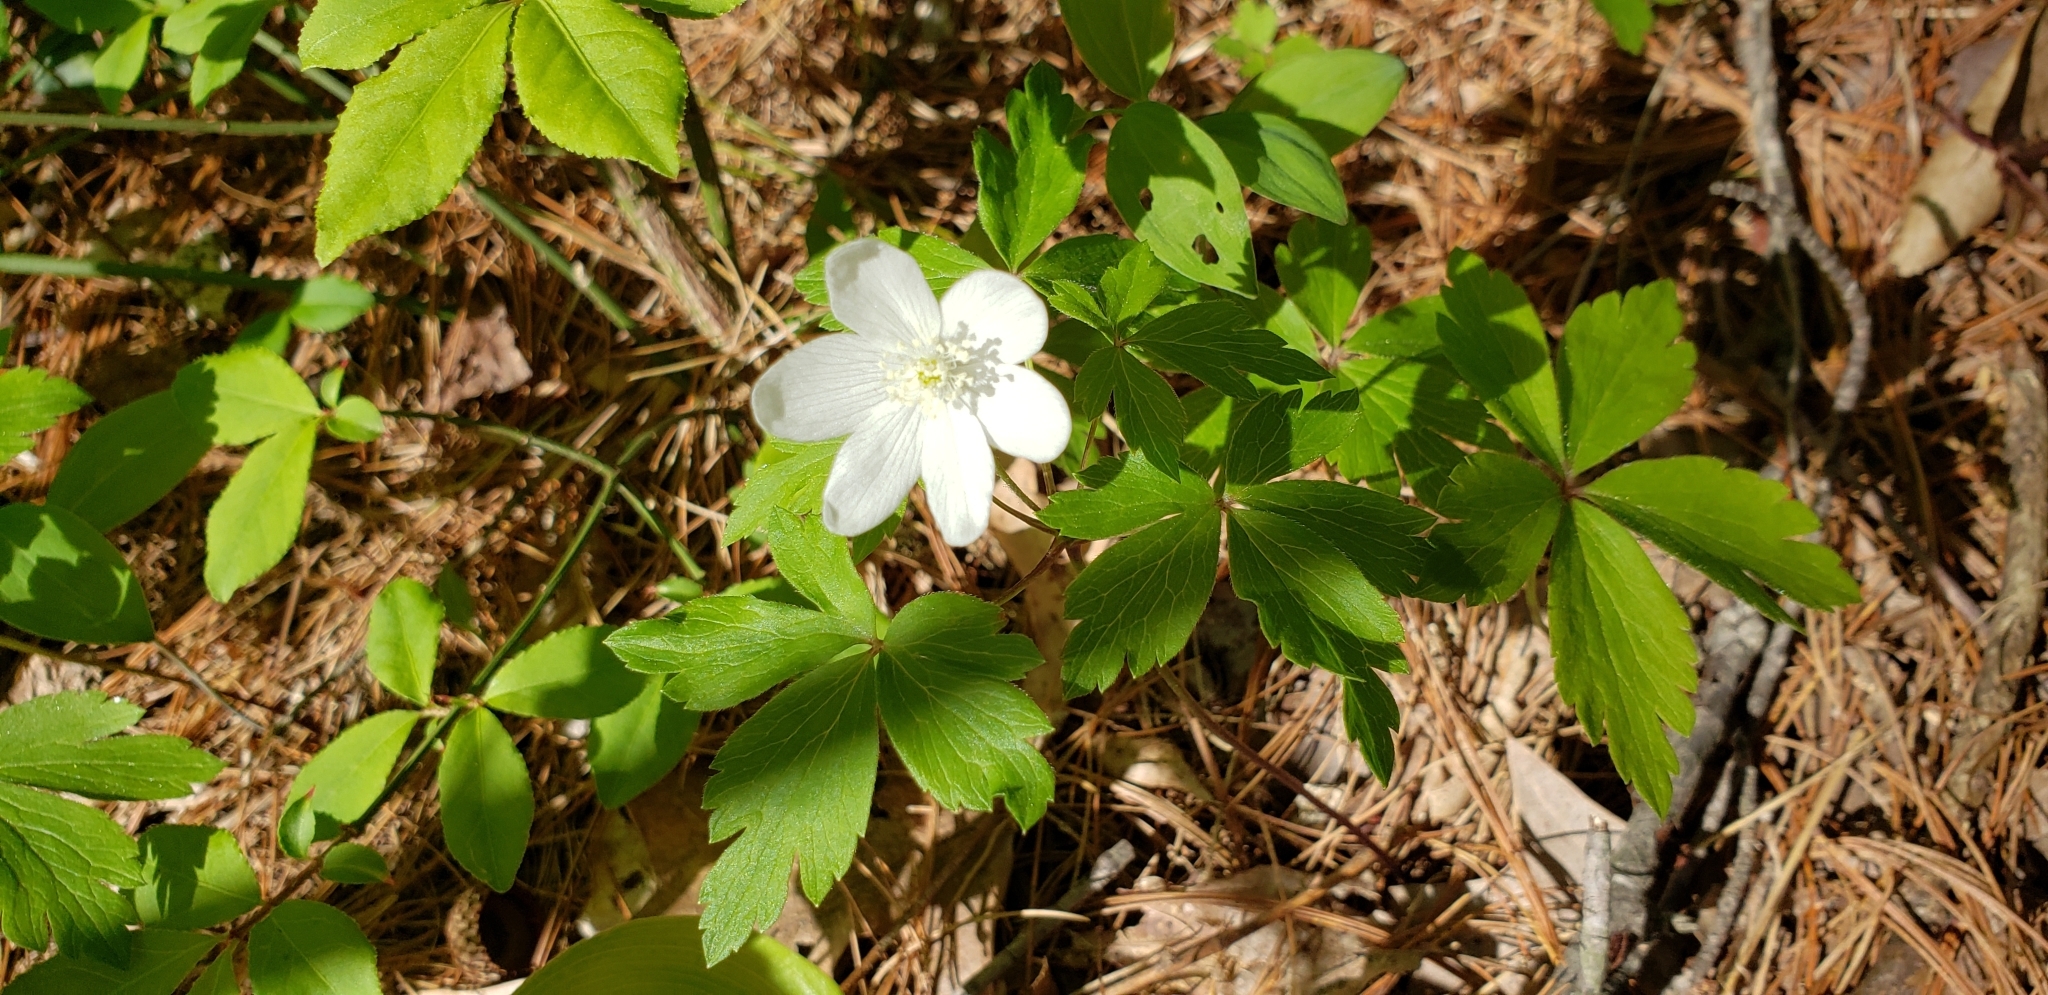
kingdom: Plantae
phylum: Tracheophyta
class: Magnoliopsida
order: Ranunculales
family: Ranunculaceae
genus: Anemone
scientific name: Anemone quinquefolia
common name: Wood anemone
